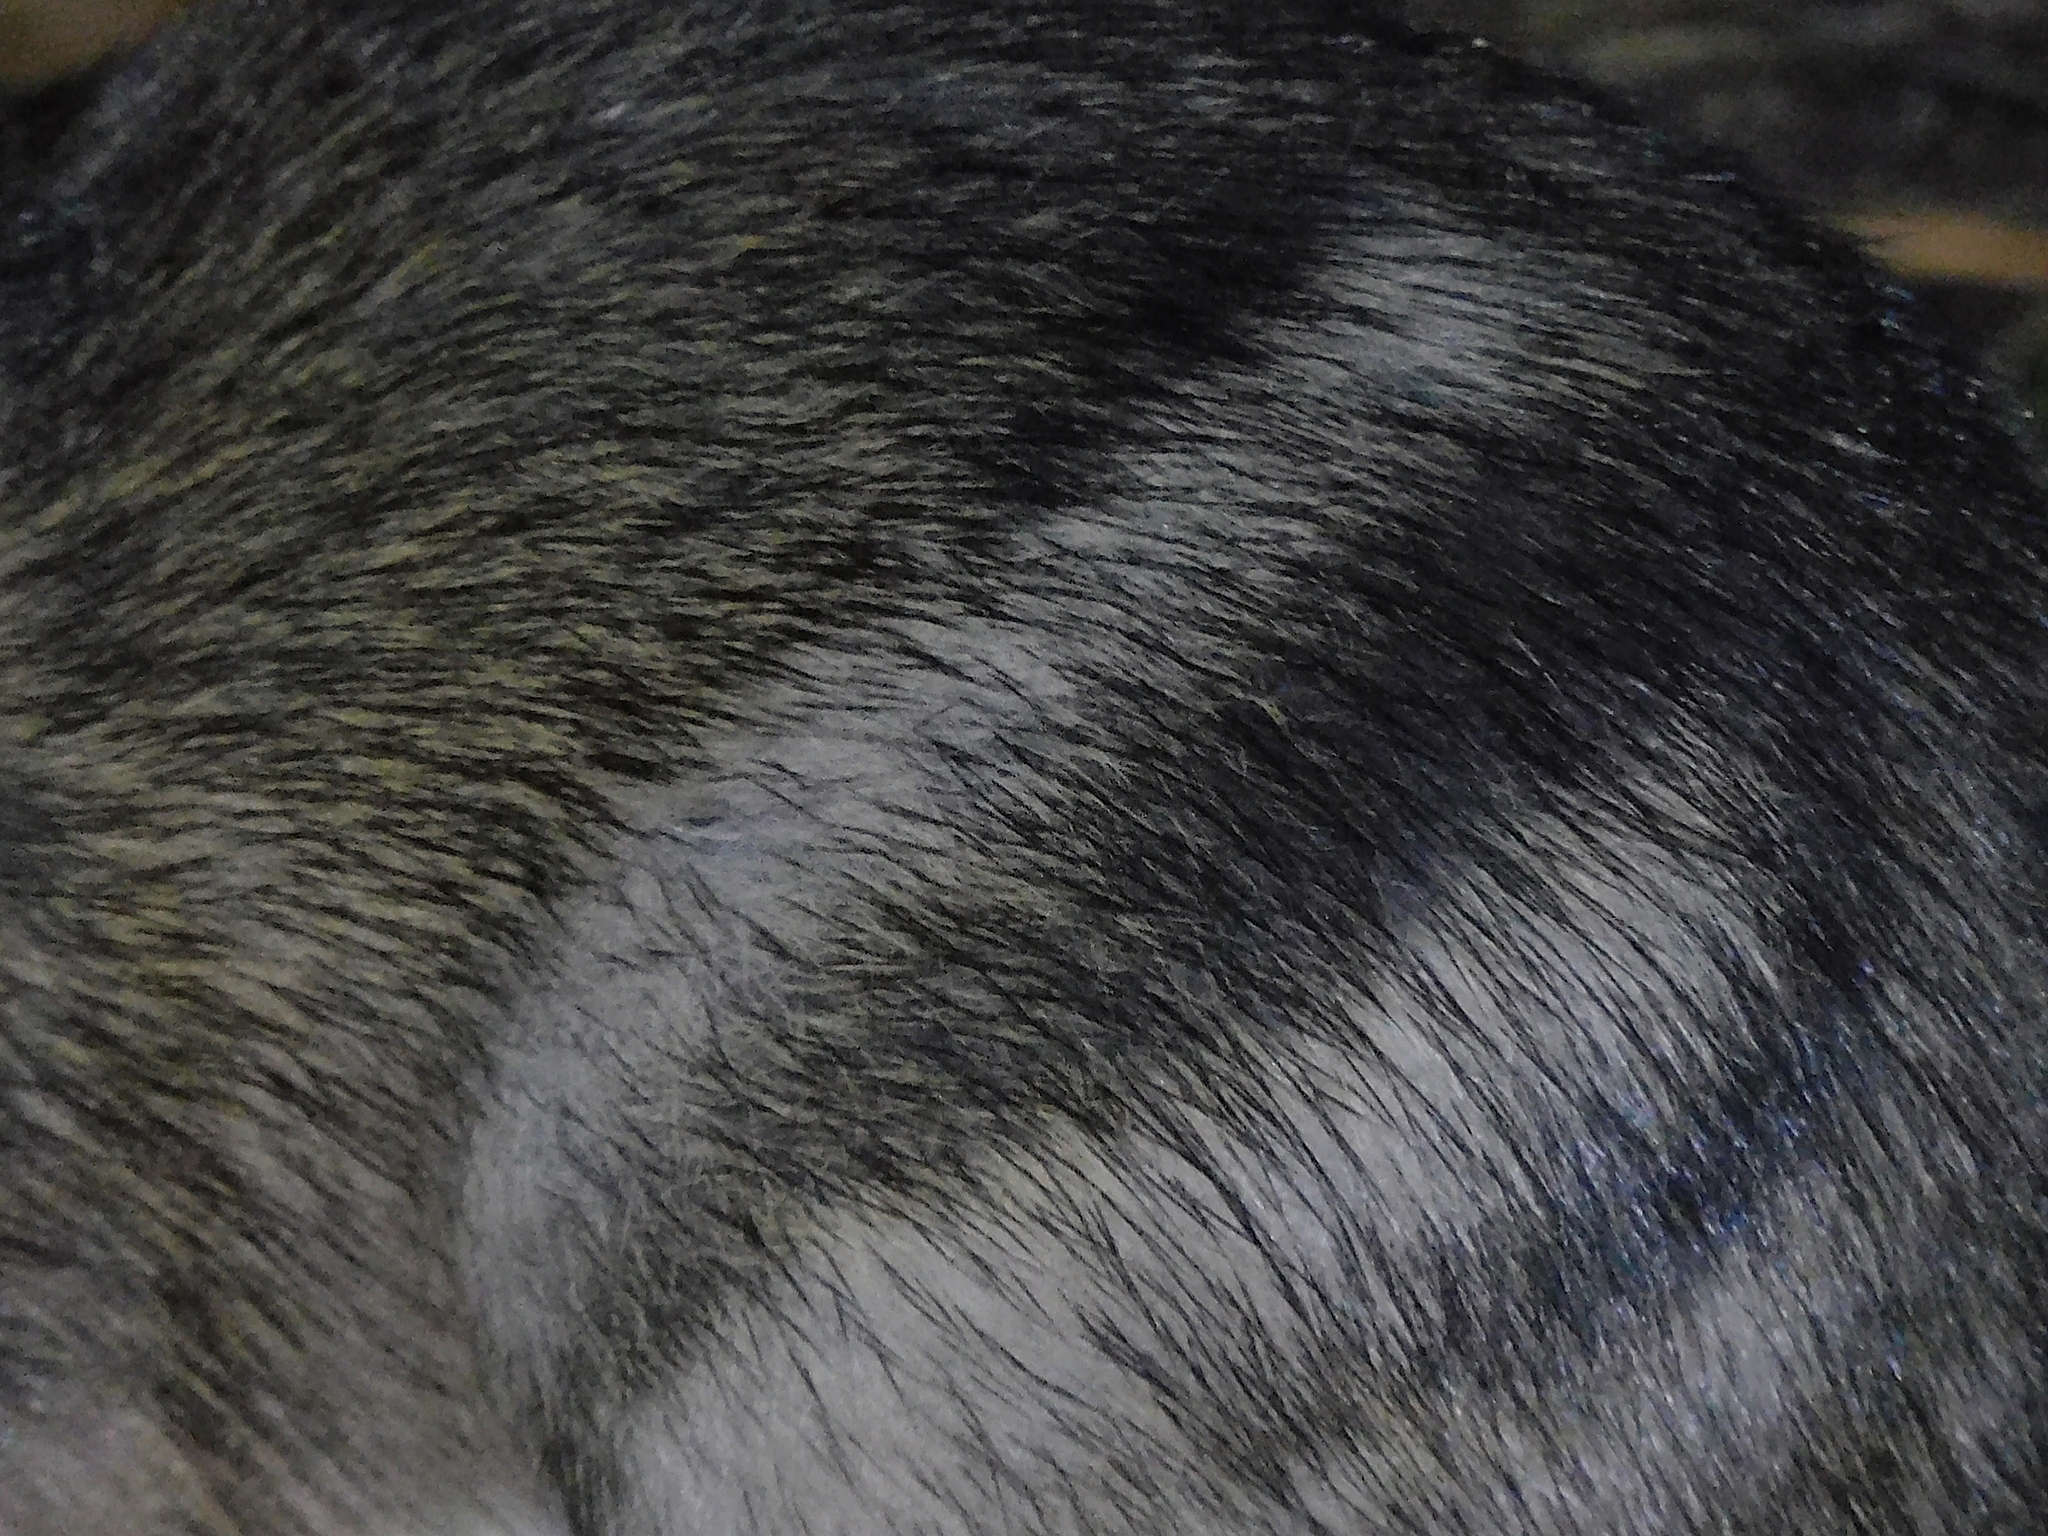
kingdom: Animalia
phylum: Chordata
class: Mammalia
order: Peramelemorphia
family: Peramelidae
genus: Perameles
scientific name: Perameles gunnii
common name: Eastern barred bandicoot
